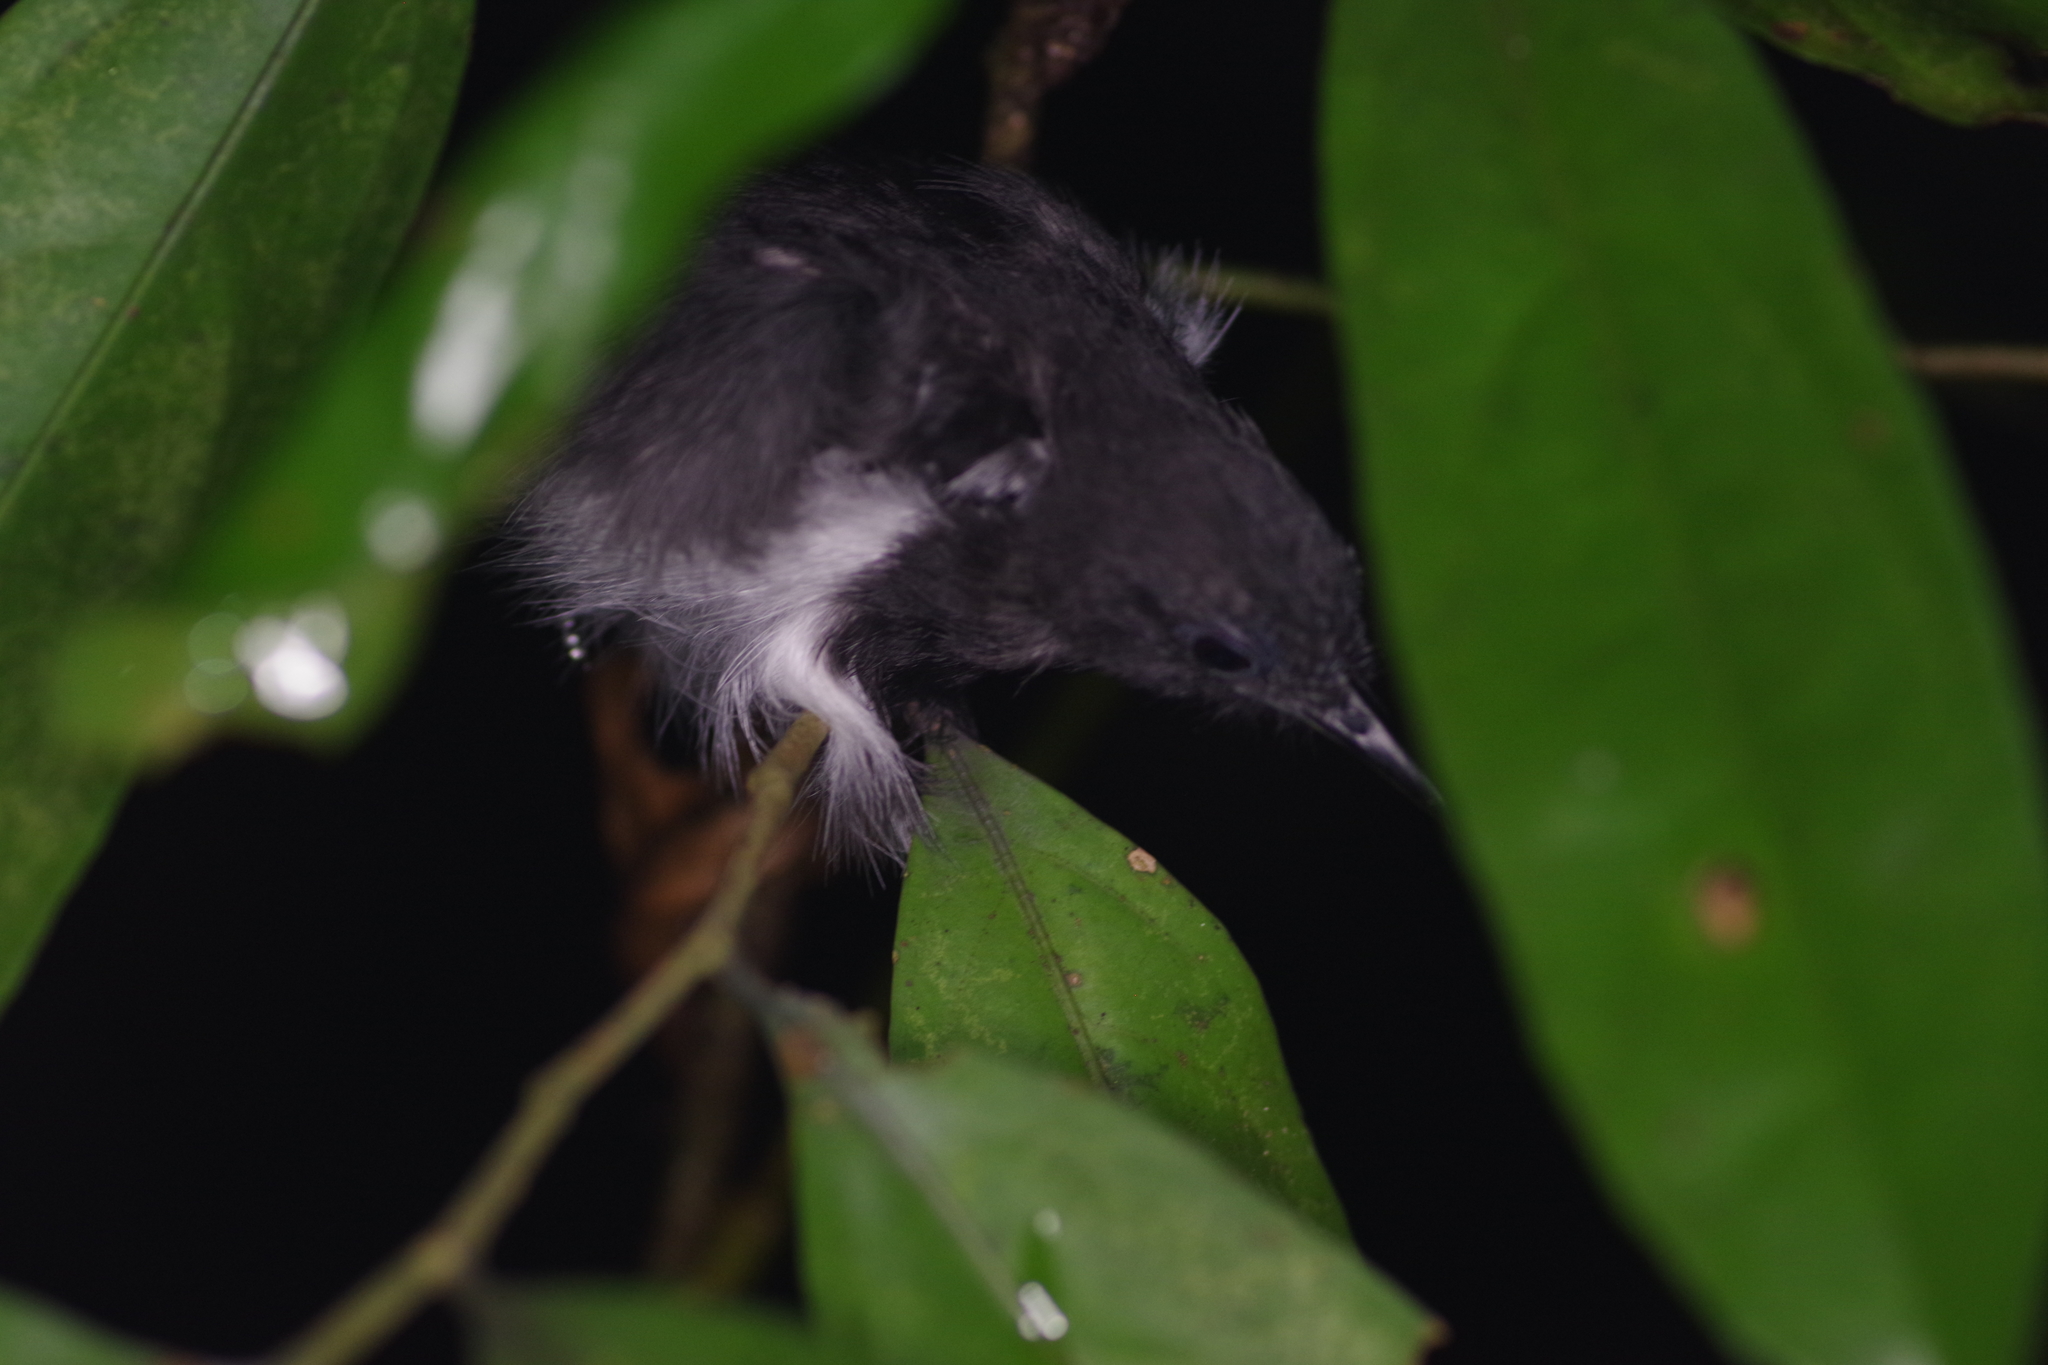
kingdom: Animalia
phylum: Chordata
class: Aves
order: Passeriformes
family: Thamnophilidae
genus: Myrmotherula
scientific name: Myrmotherula axillaris
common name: White-flanked antwren
